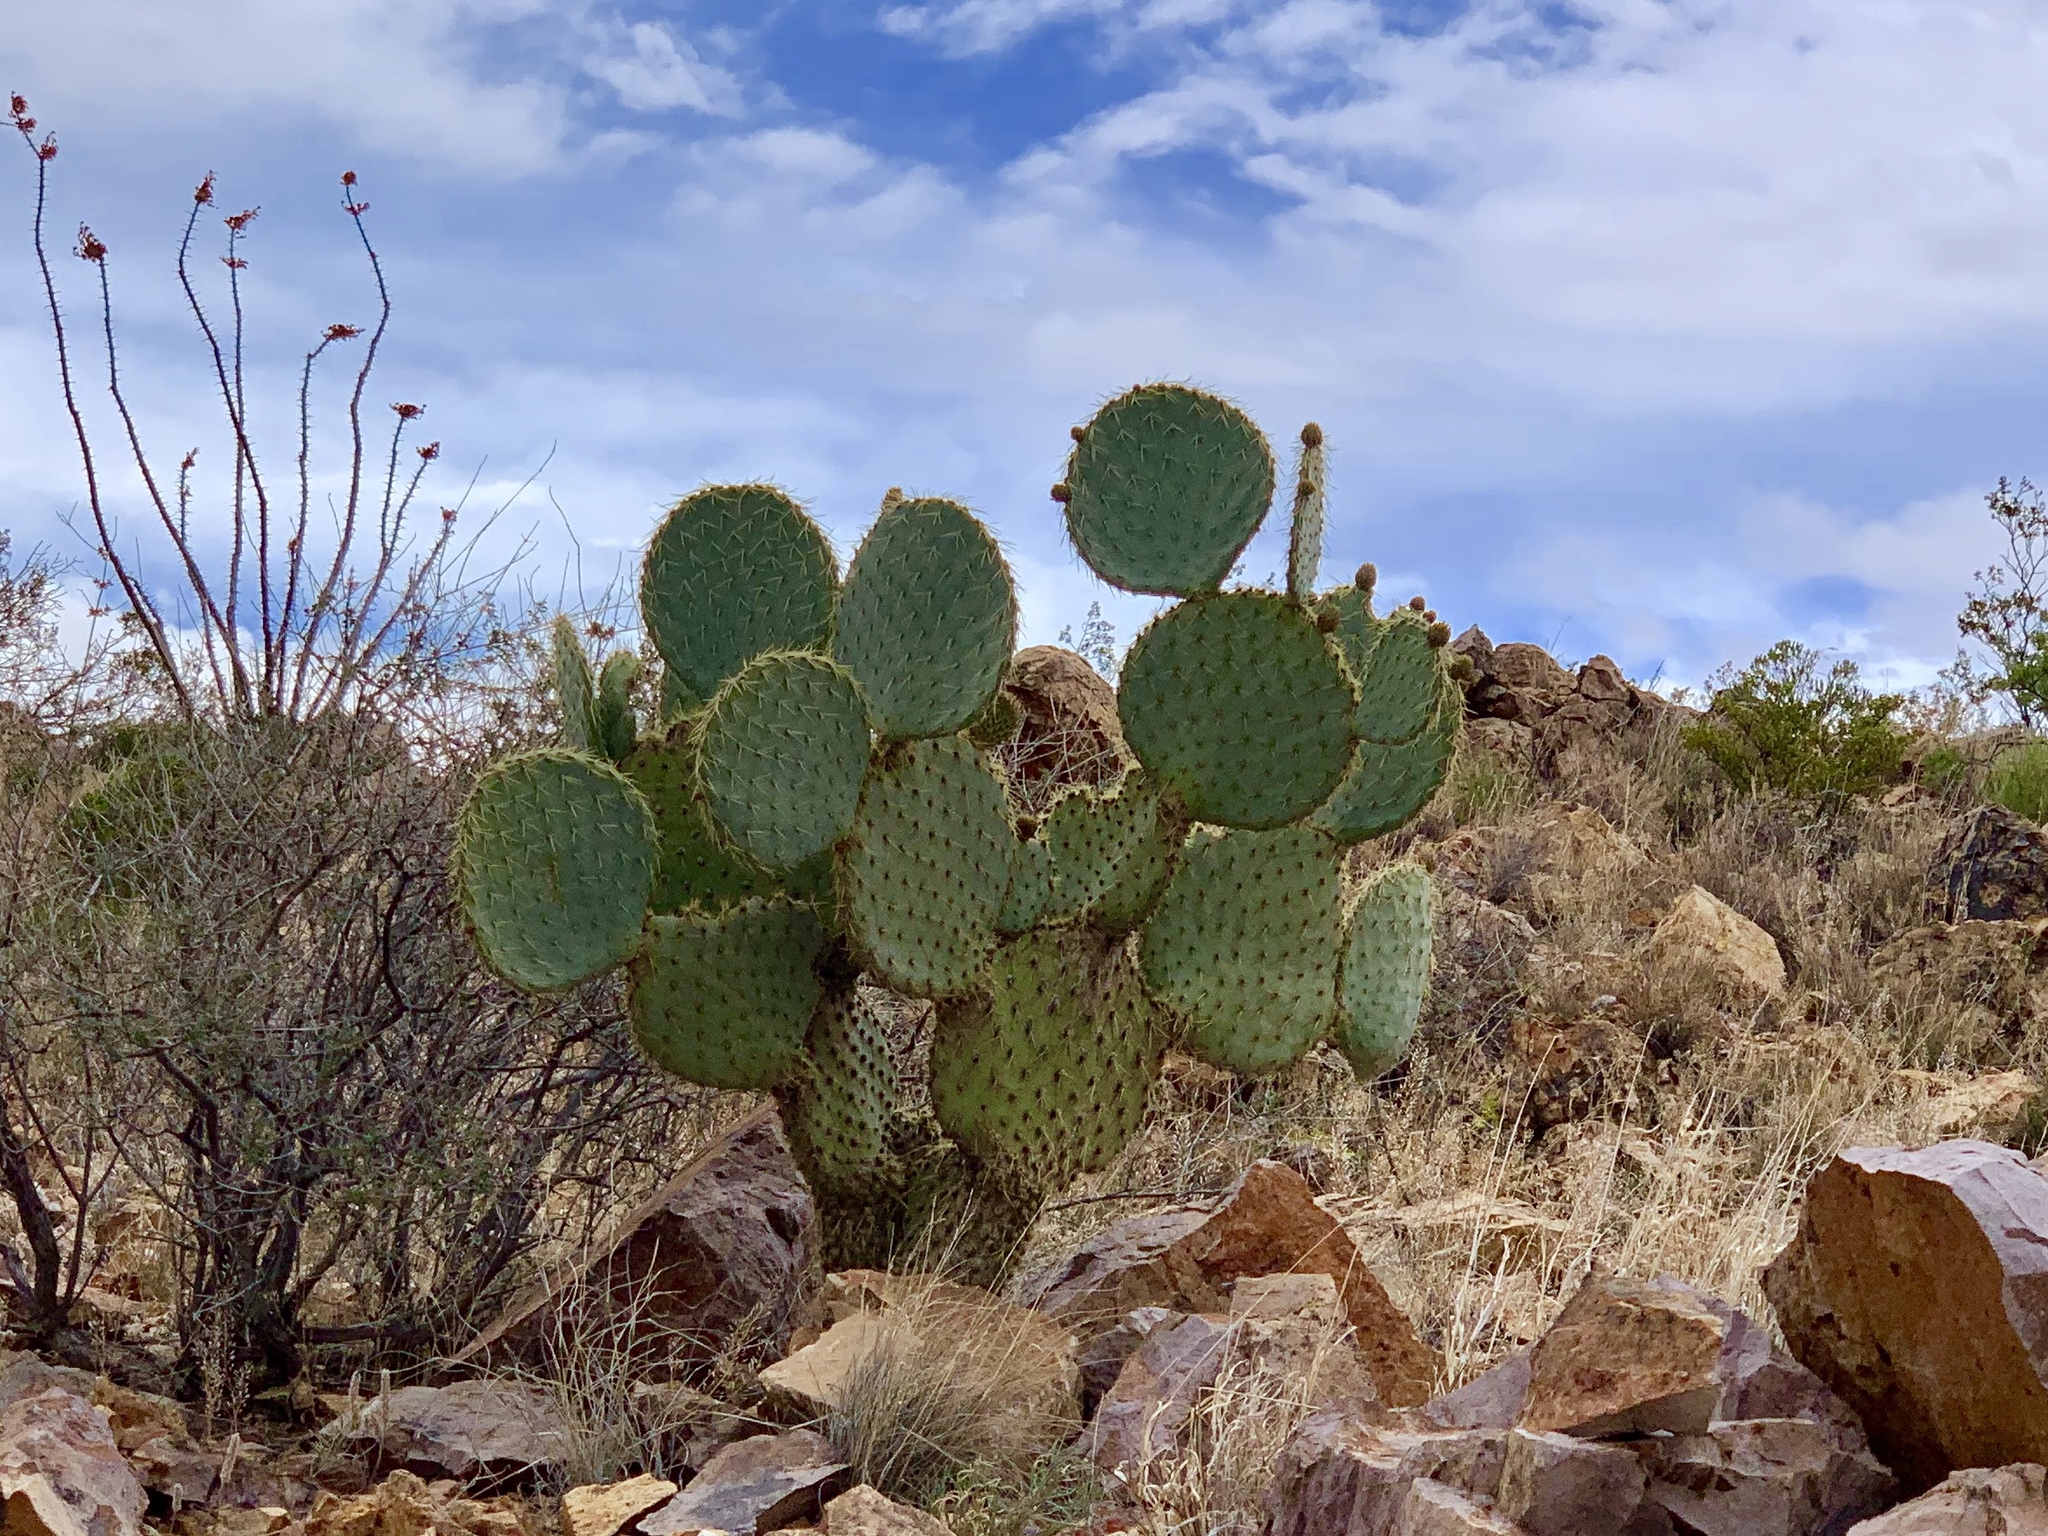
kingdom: Plantae
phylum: Tracheophyta
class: Magnoliopsida
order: Caryophyllales
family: Cactaceae
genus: Opuntia
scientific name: Opuntia chlorotica
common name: Dollar-joint prickly-pear
